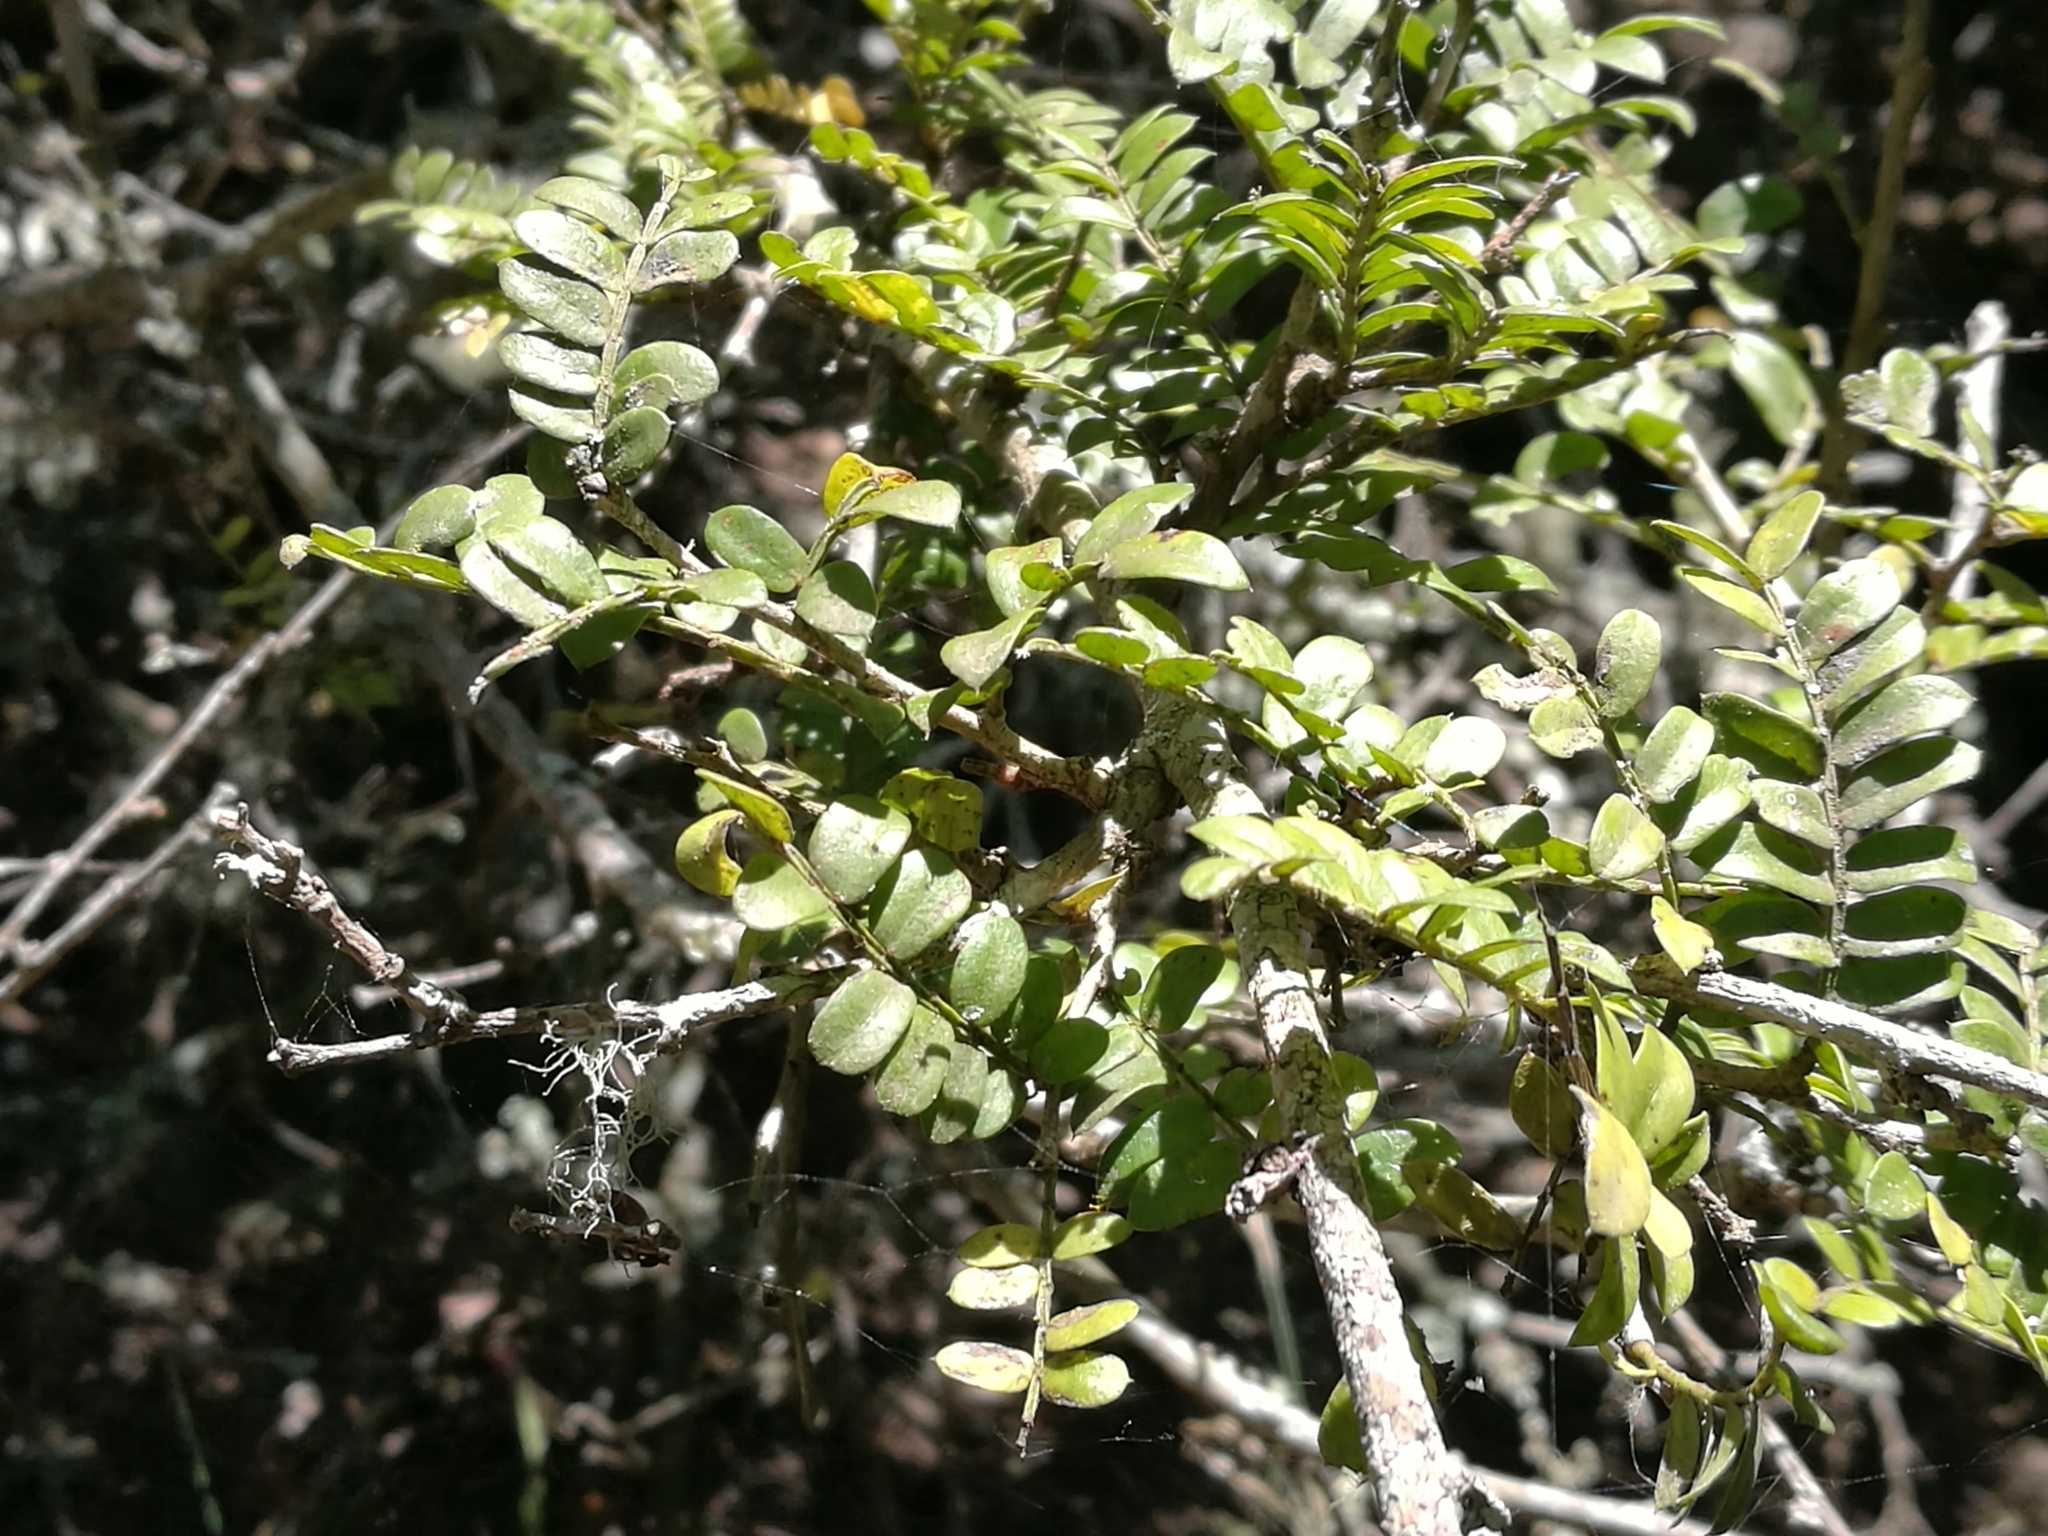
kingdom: Plantae
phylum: Tracheophyta
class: Magnoliopsida
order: Fabales
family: Fabaceae
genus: Schotia
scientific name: Schotia afra
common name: Hottentot's bean
